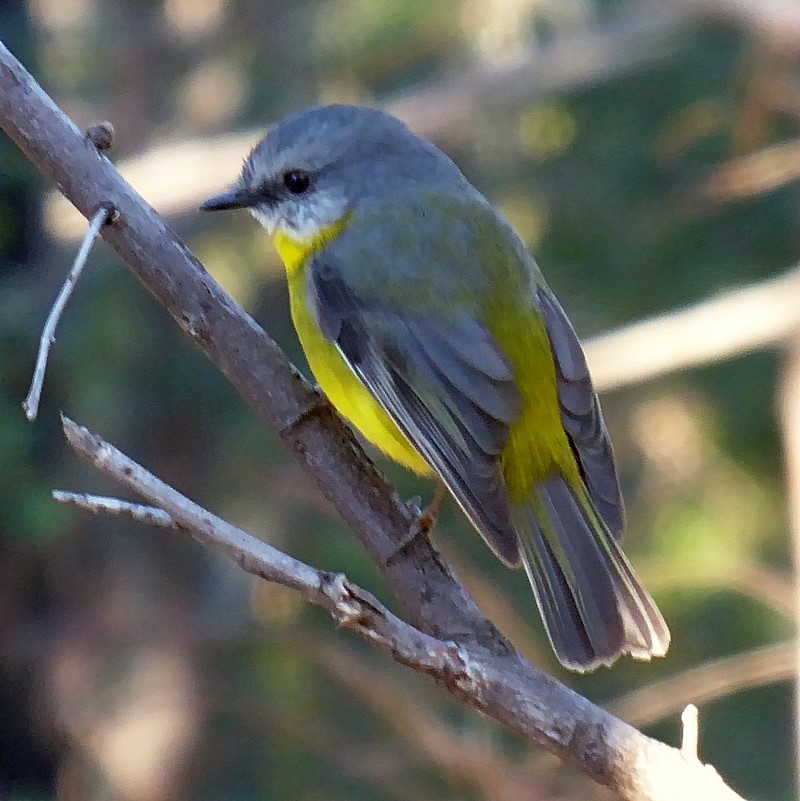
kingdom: Animalia
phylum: Chordata
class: Aves
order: Passeriformes
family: Petroicidae
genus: Eopsaltria
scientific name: Eopsaltria australis
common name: Eastern yellow robin
